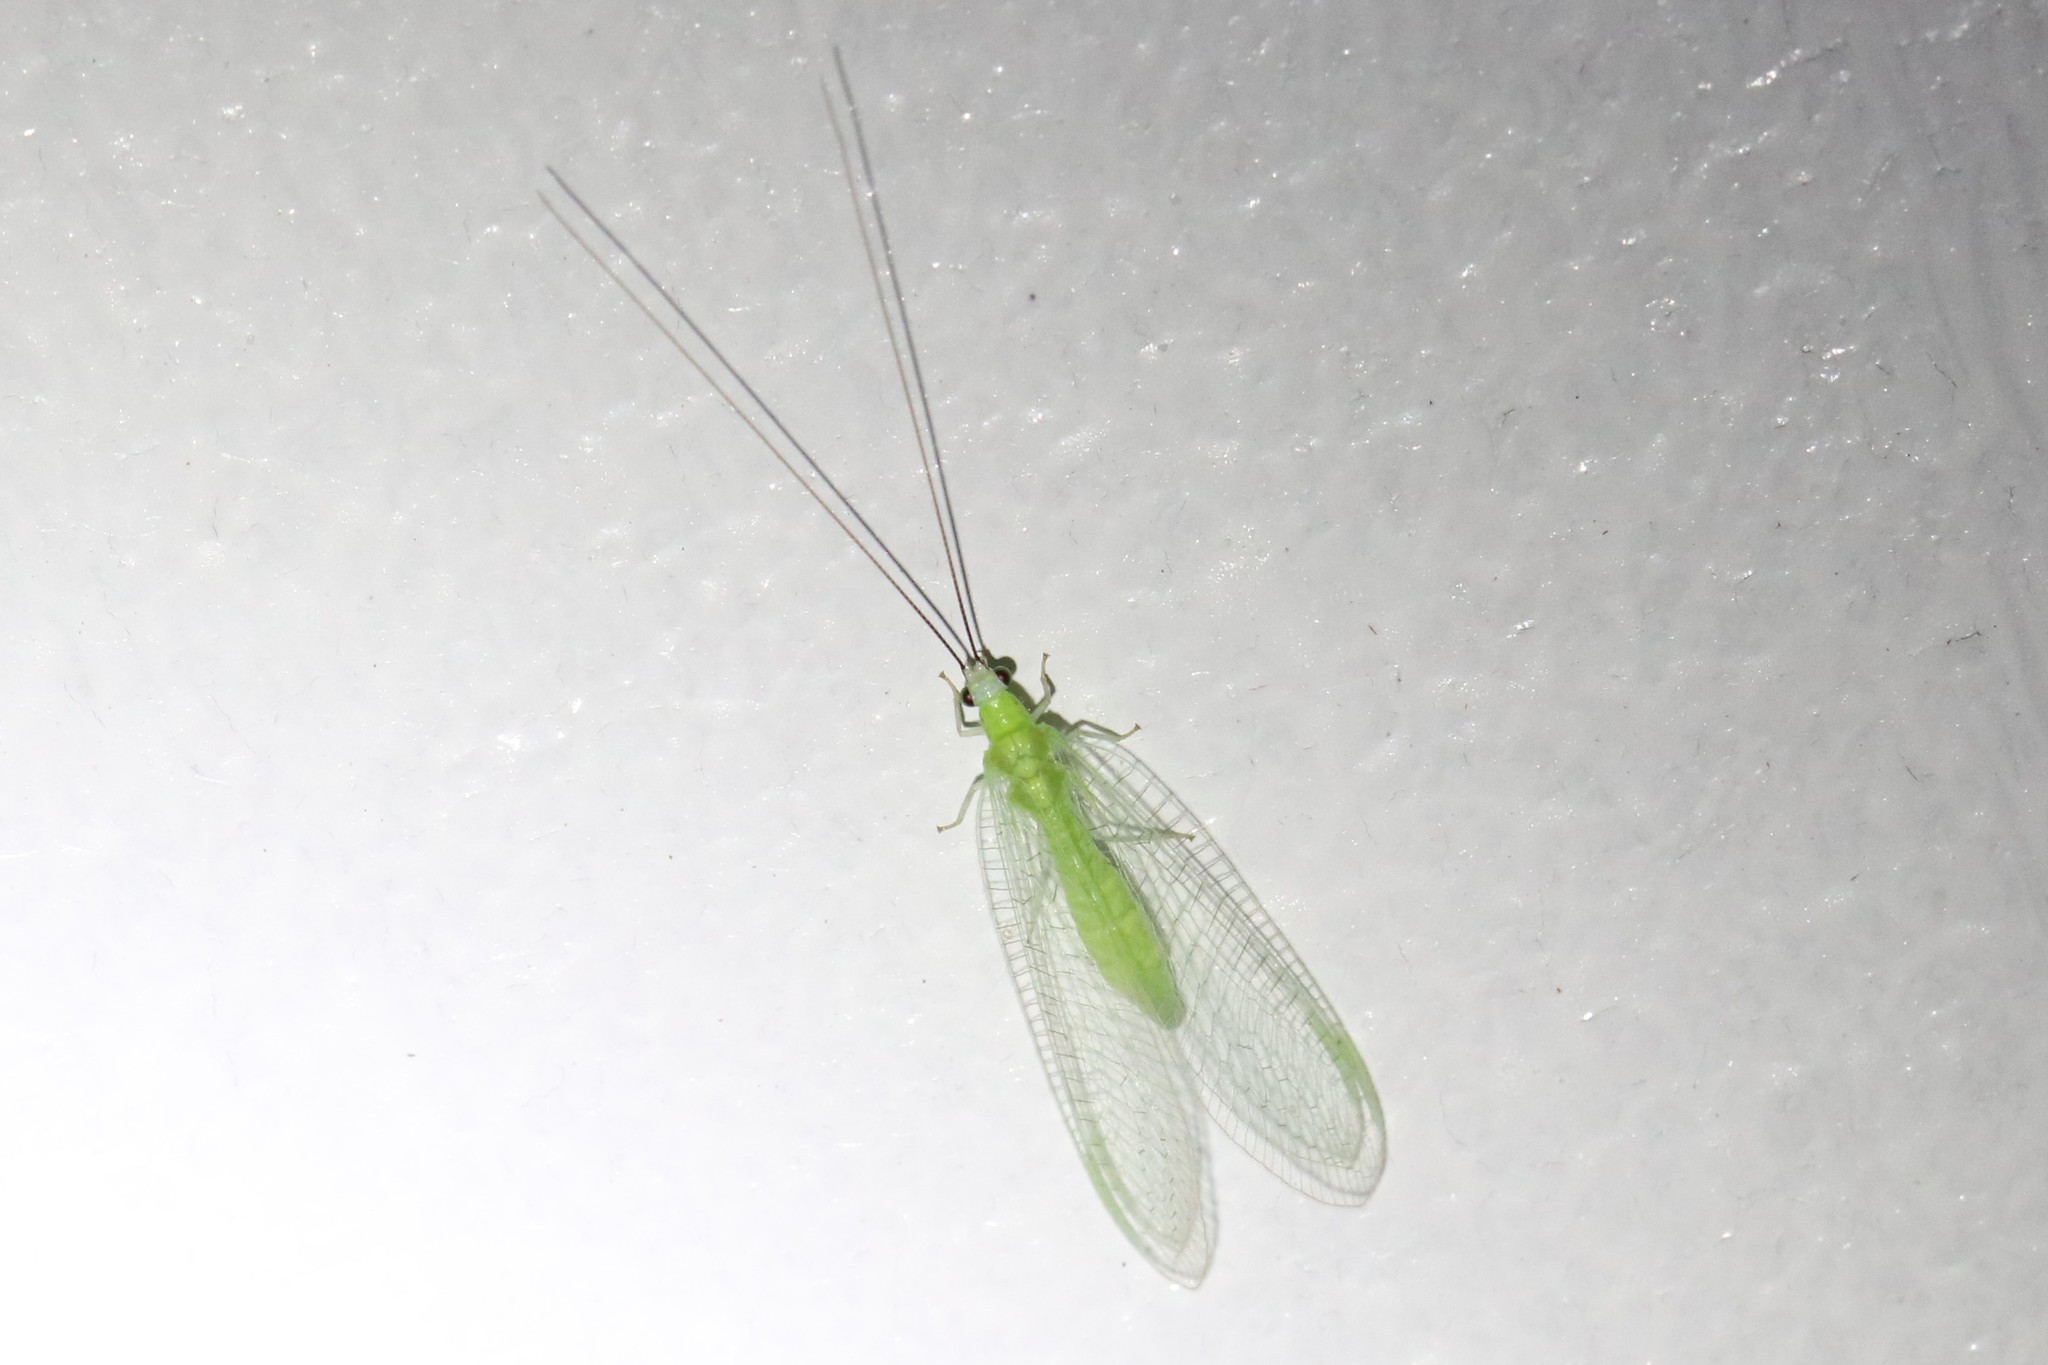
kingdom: Animalia
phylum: Arthropoda
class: Insecta
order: Neuroptera
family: Chrysopidae
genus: Chrysopa
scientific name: Chrysopa nigricornis
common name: Black-horned green lacewing
